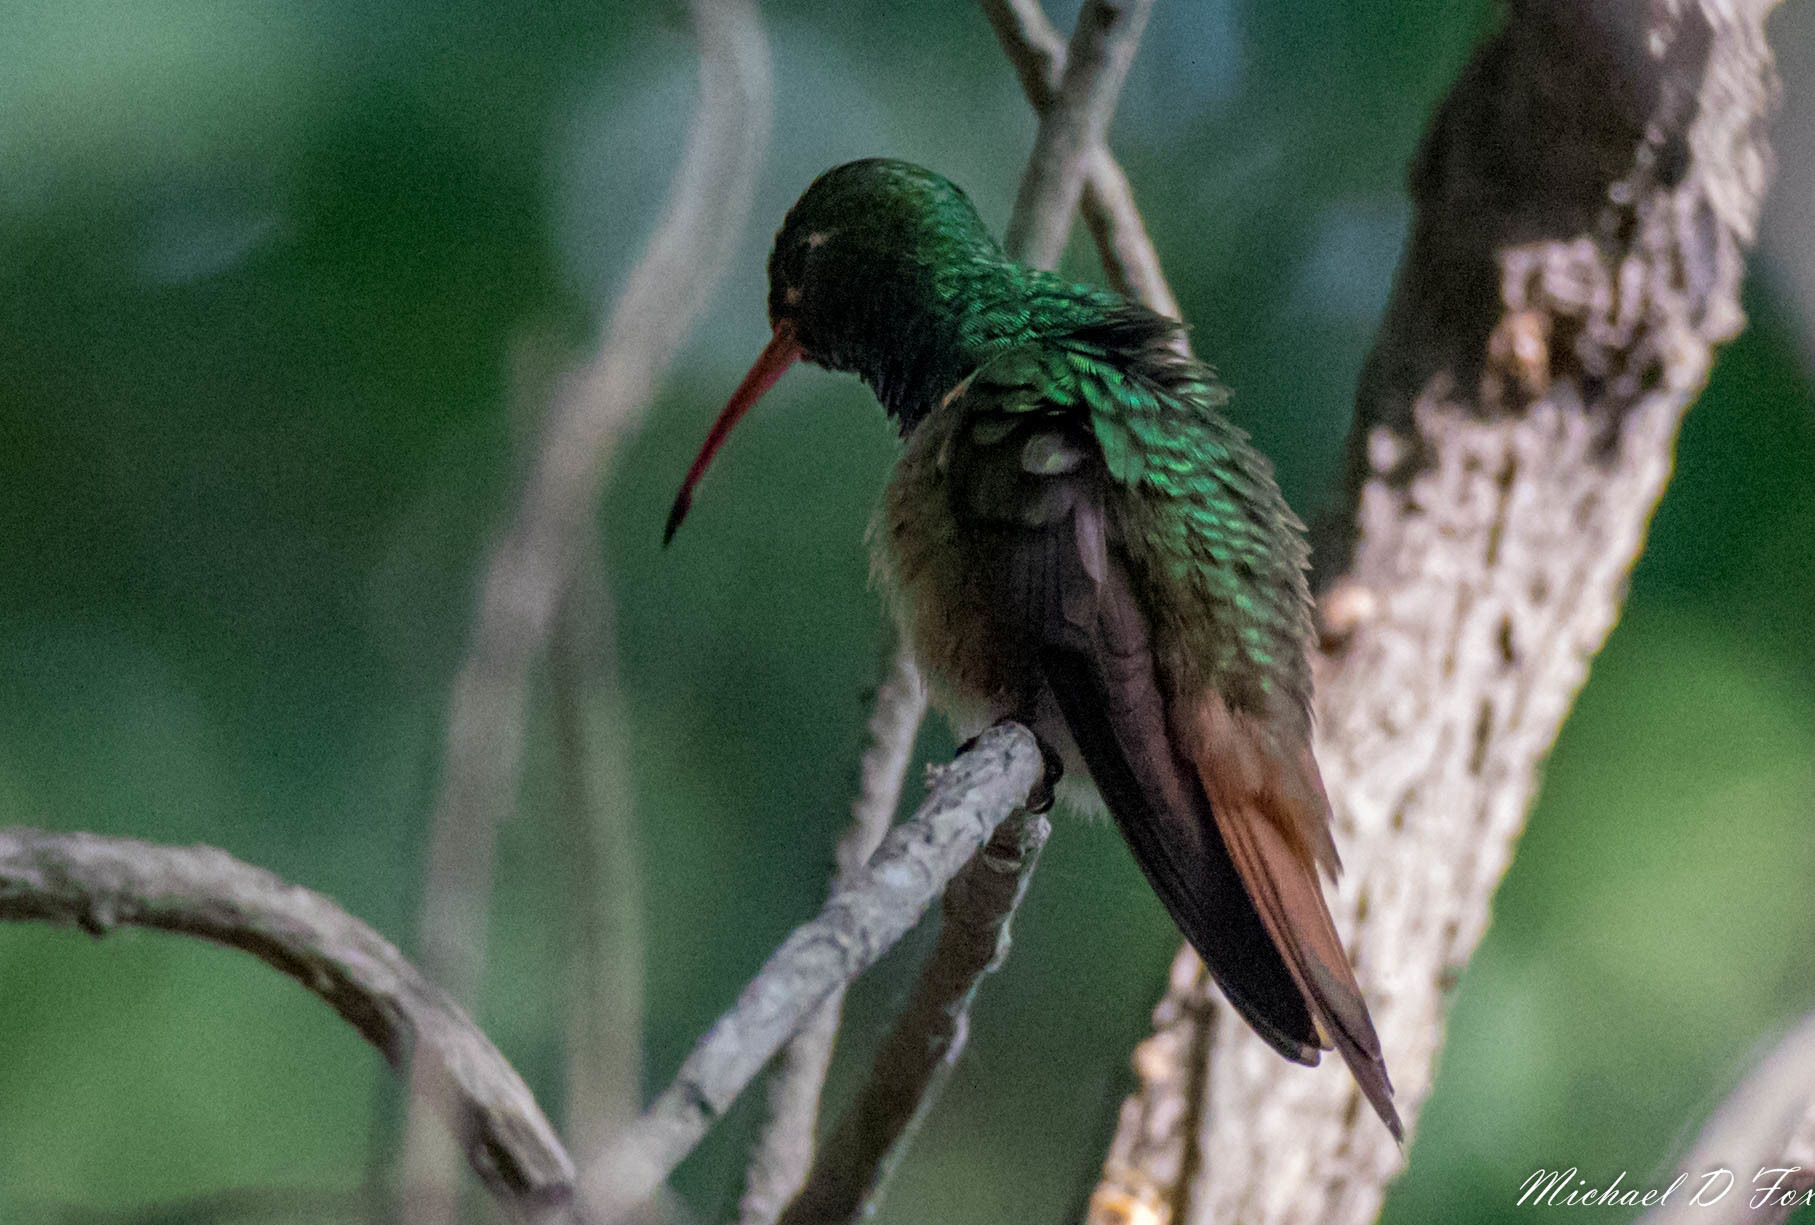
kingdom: Animalia
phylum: Chordata
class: Aves
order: Apodiformes
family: Trochilidae
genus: Amazilia
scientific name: Amazilia yucatanensis
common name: Buff-bellied hummingbird
